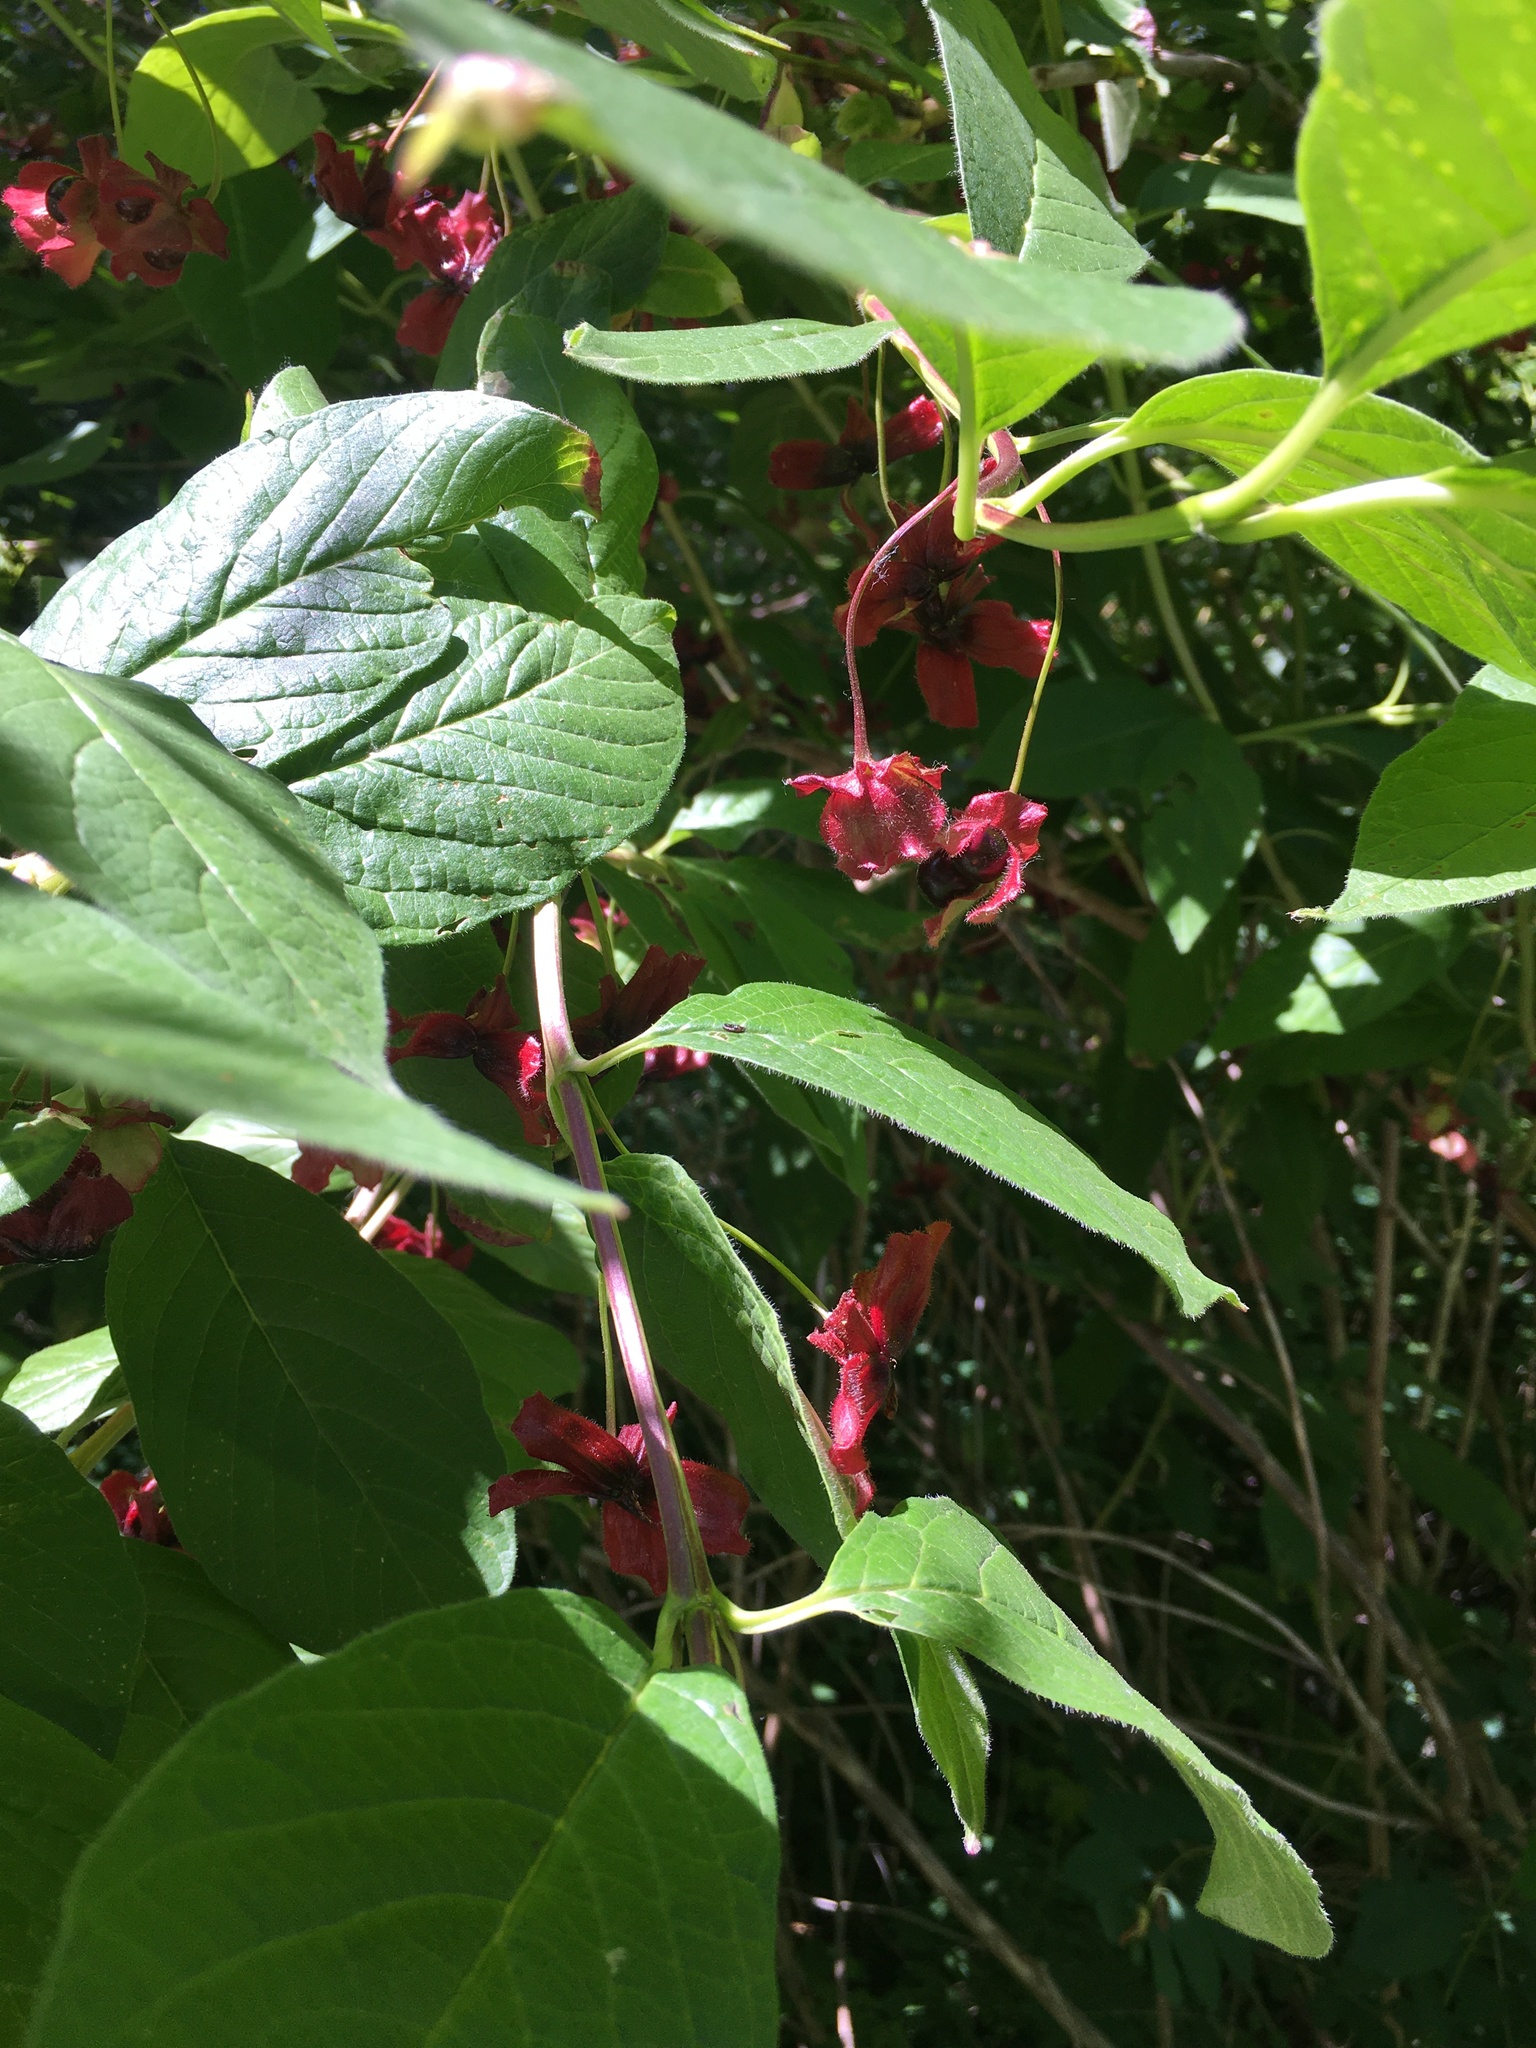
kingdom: Plantae
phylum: Tracheophyta
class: Magnoliopsida
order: Dipsacales
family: Caprifoliaceae
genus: Lonicera
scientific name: Lonicera involucrata
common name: Californian honeysuckle
